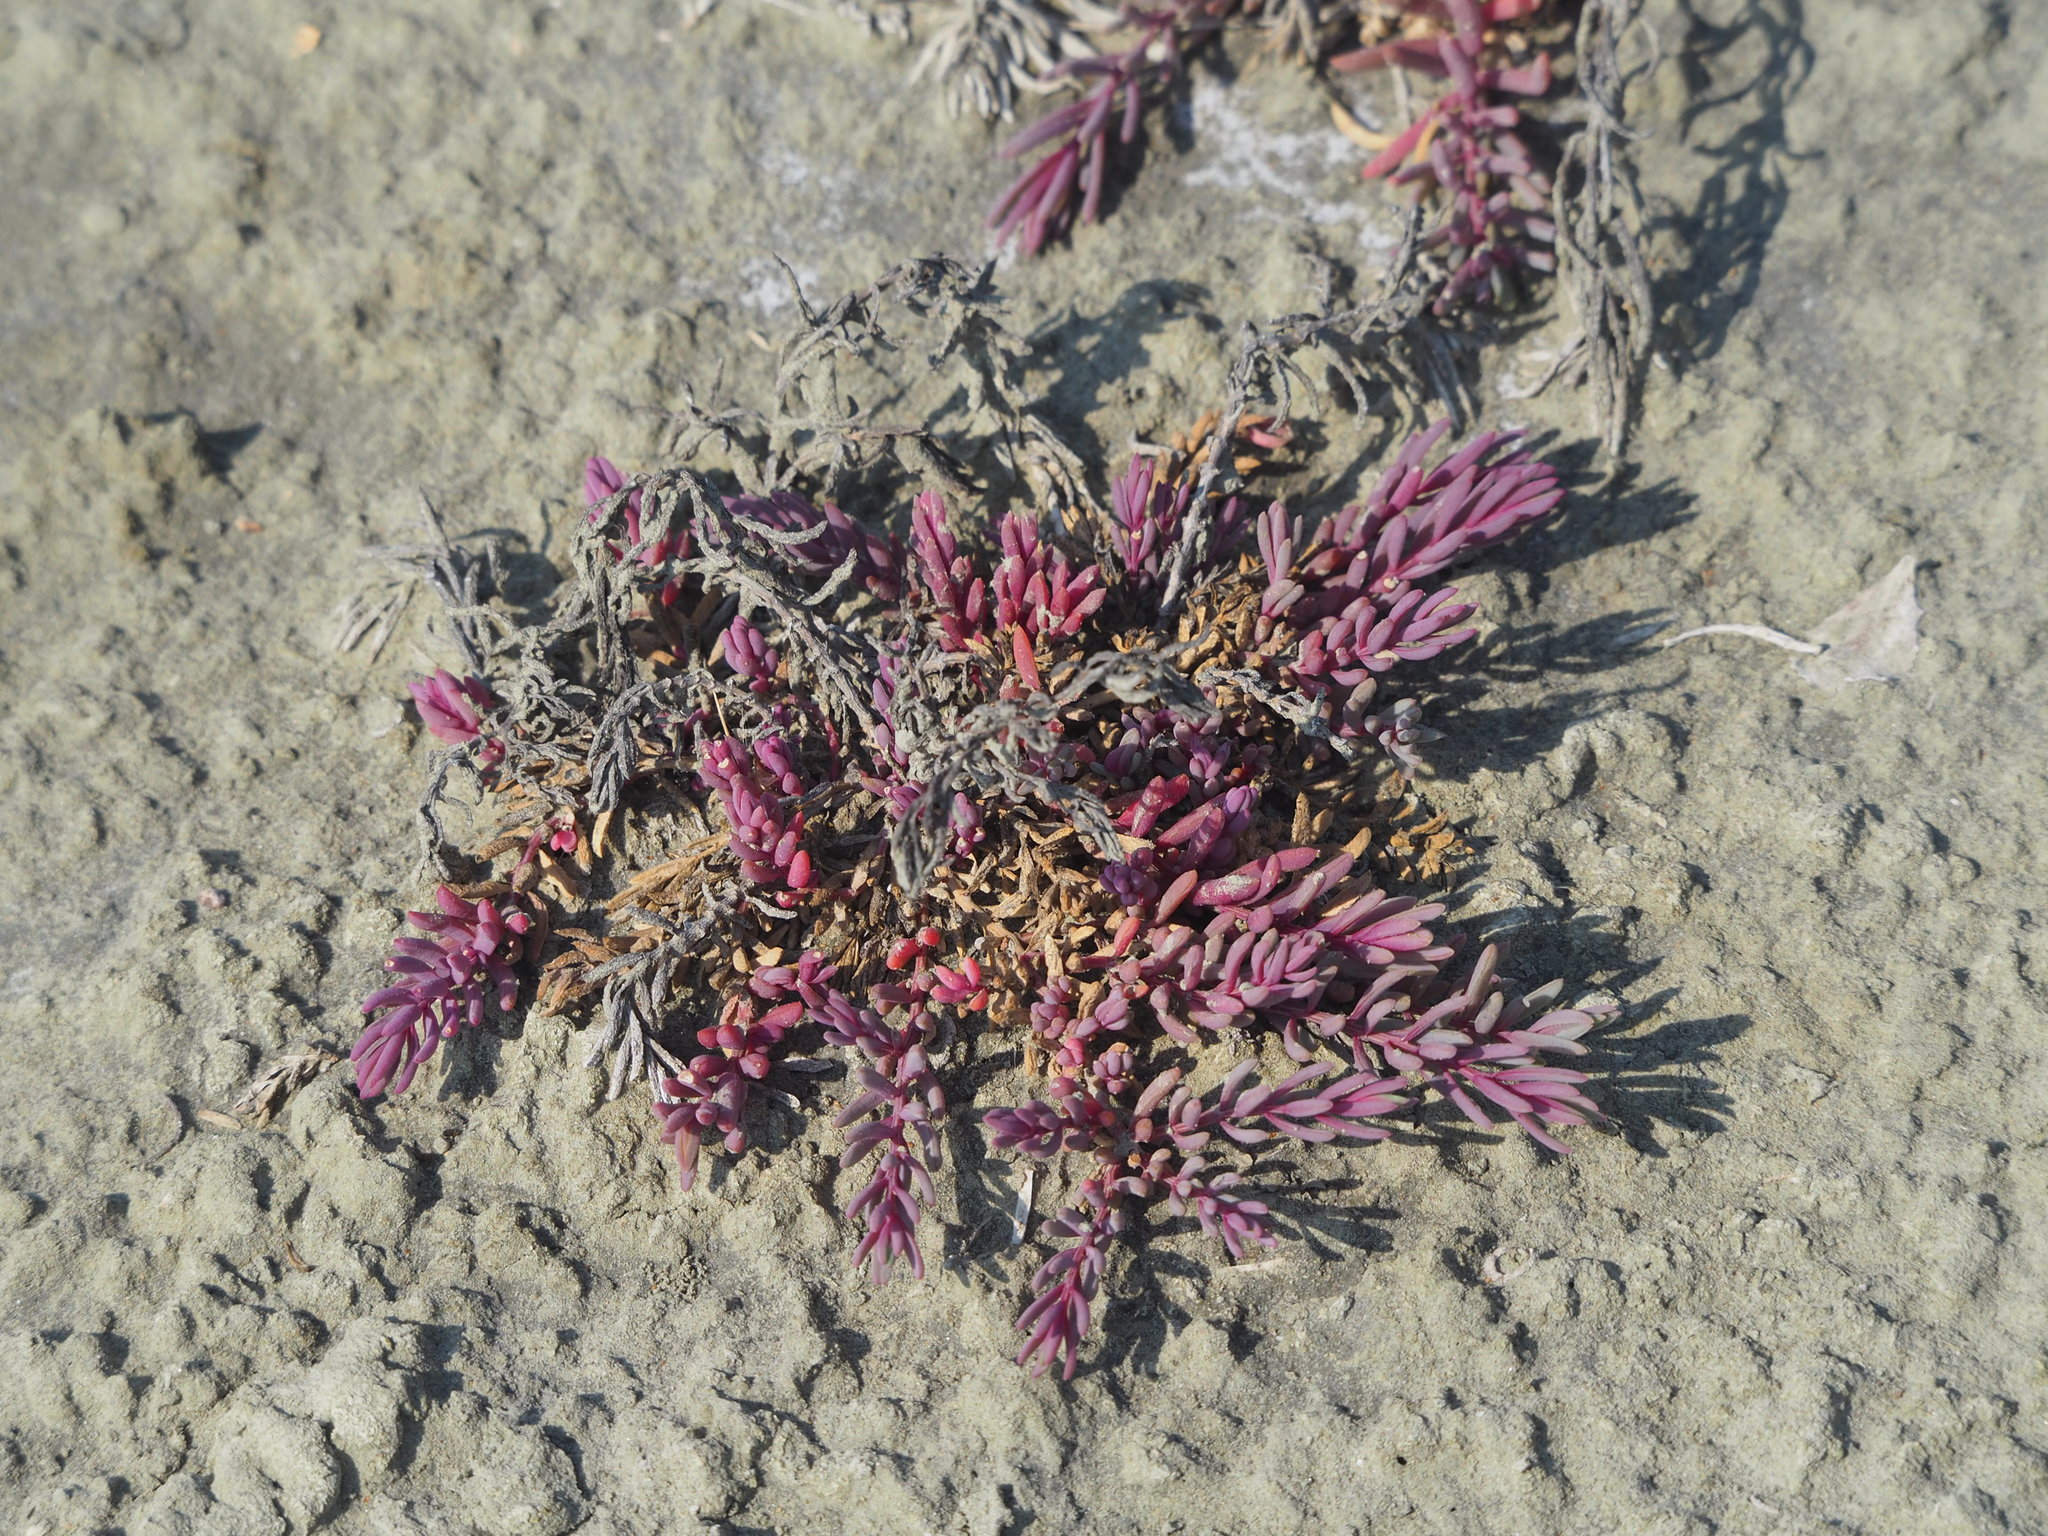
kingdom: Plantae
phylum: Tracheophyta
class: Magnoliopsida
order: Caryophyllales
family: Amaranthaceae
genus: Suaeda
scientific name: Suaeda maritima
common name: Annual sea-blite
